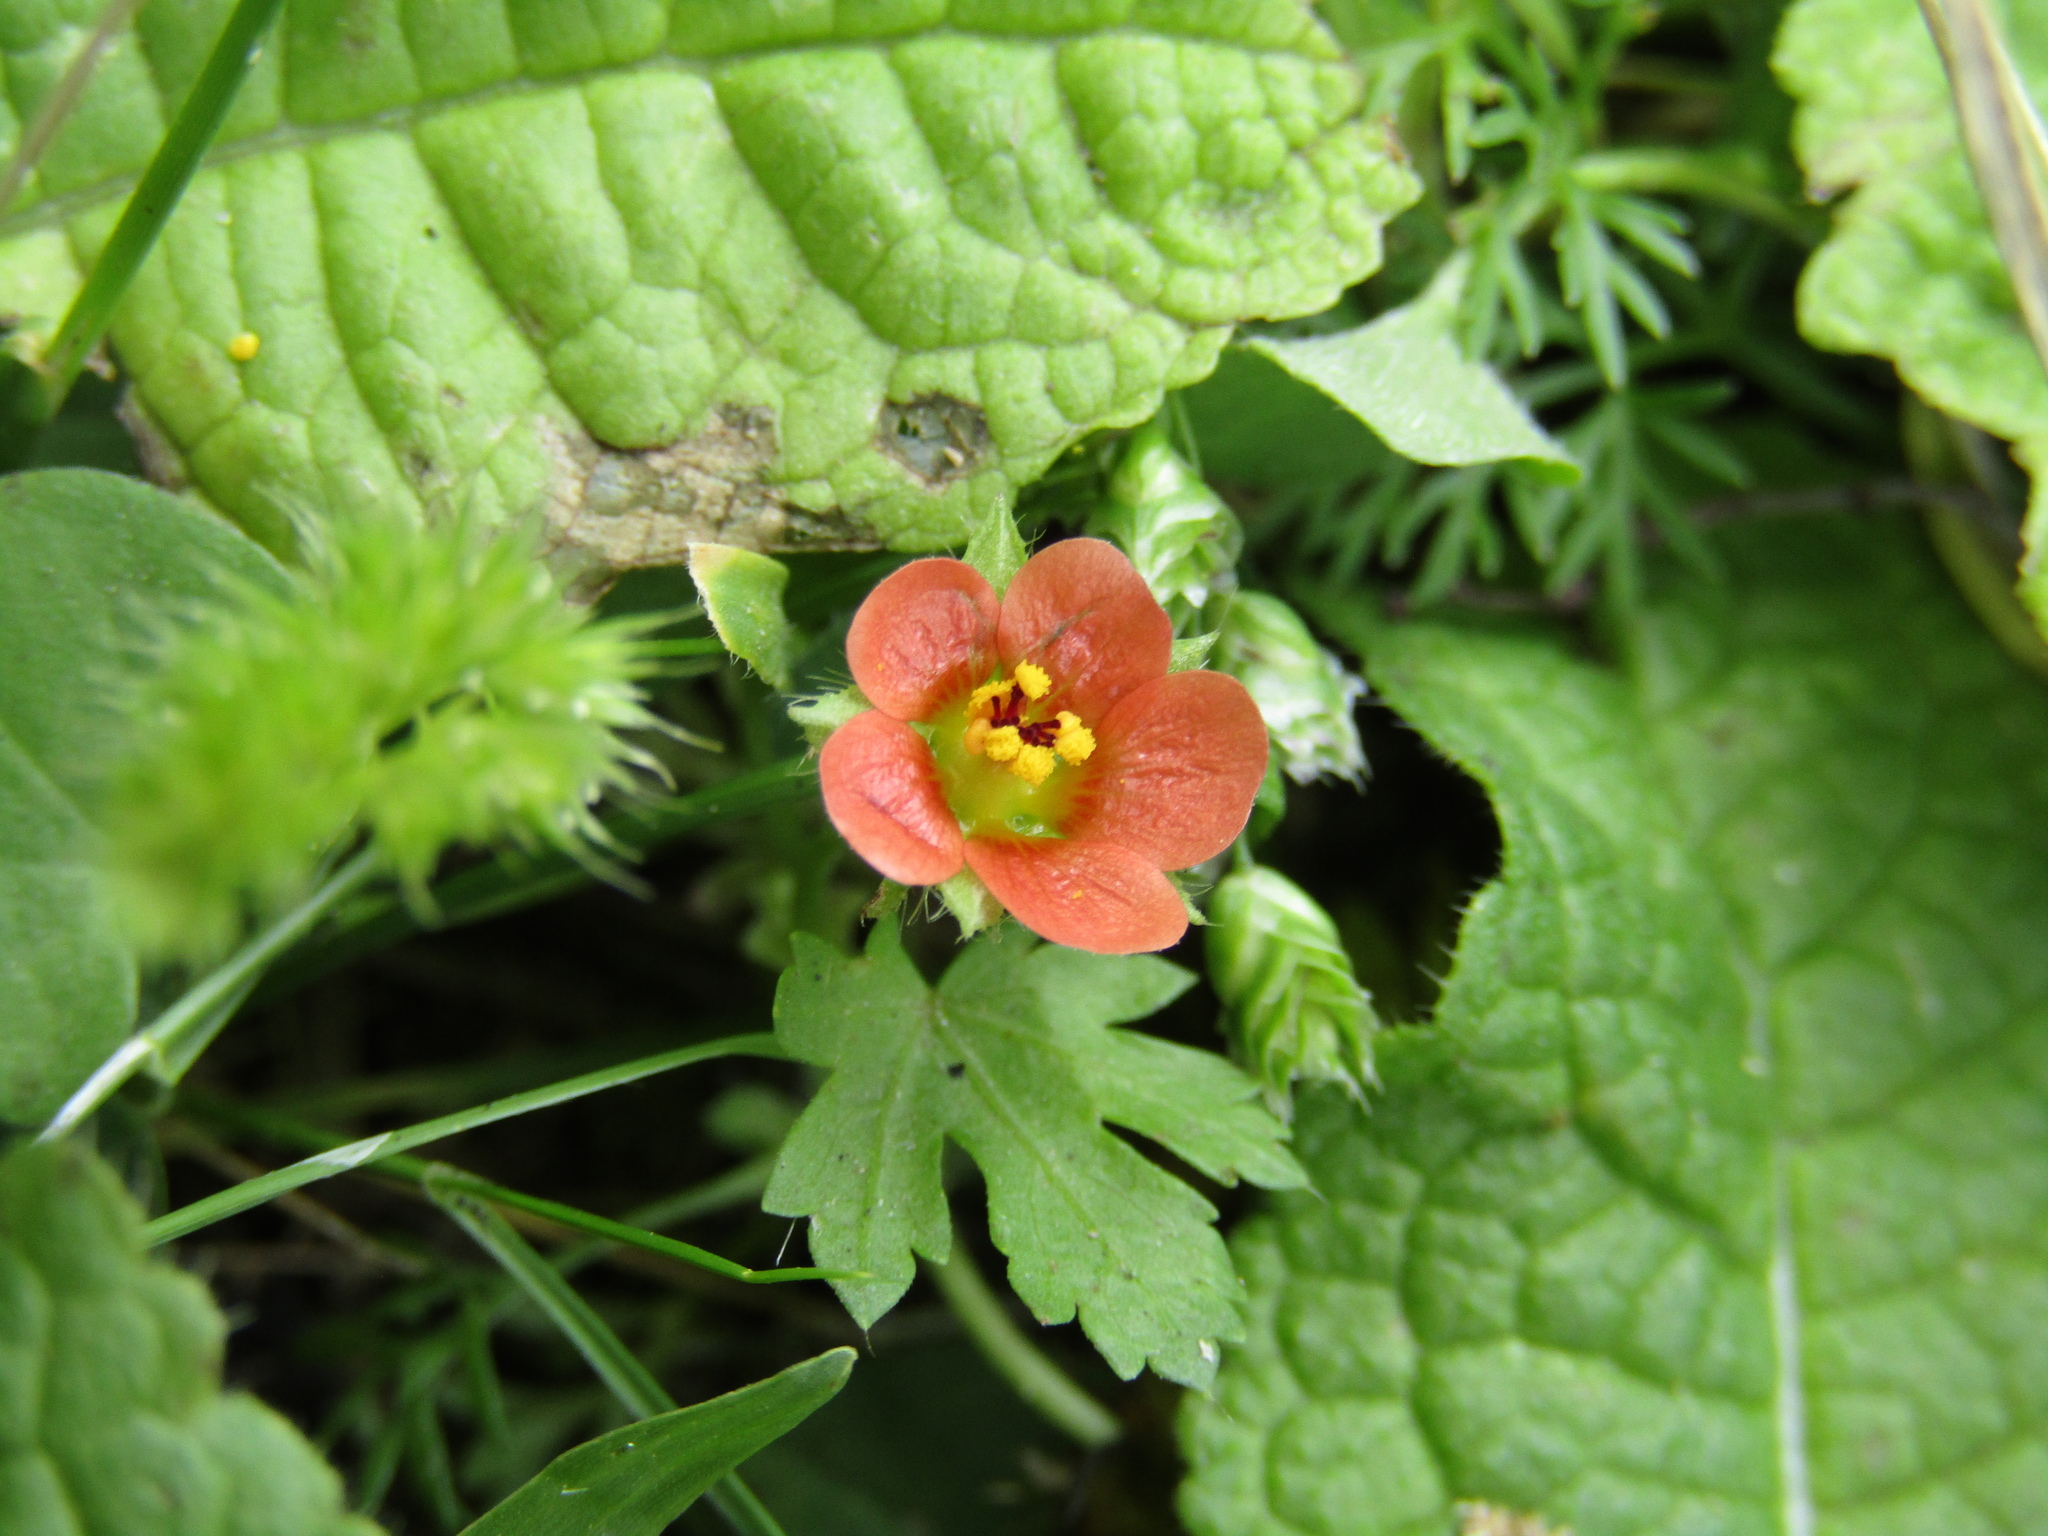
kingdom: Plantae
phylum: Tracheophyta
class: Magnoliopsida
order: Malvales
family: Malvaceae
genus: Modiola
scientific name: Modiola caroliniana
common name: Carolina bristlemallow
